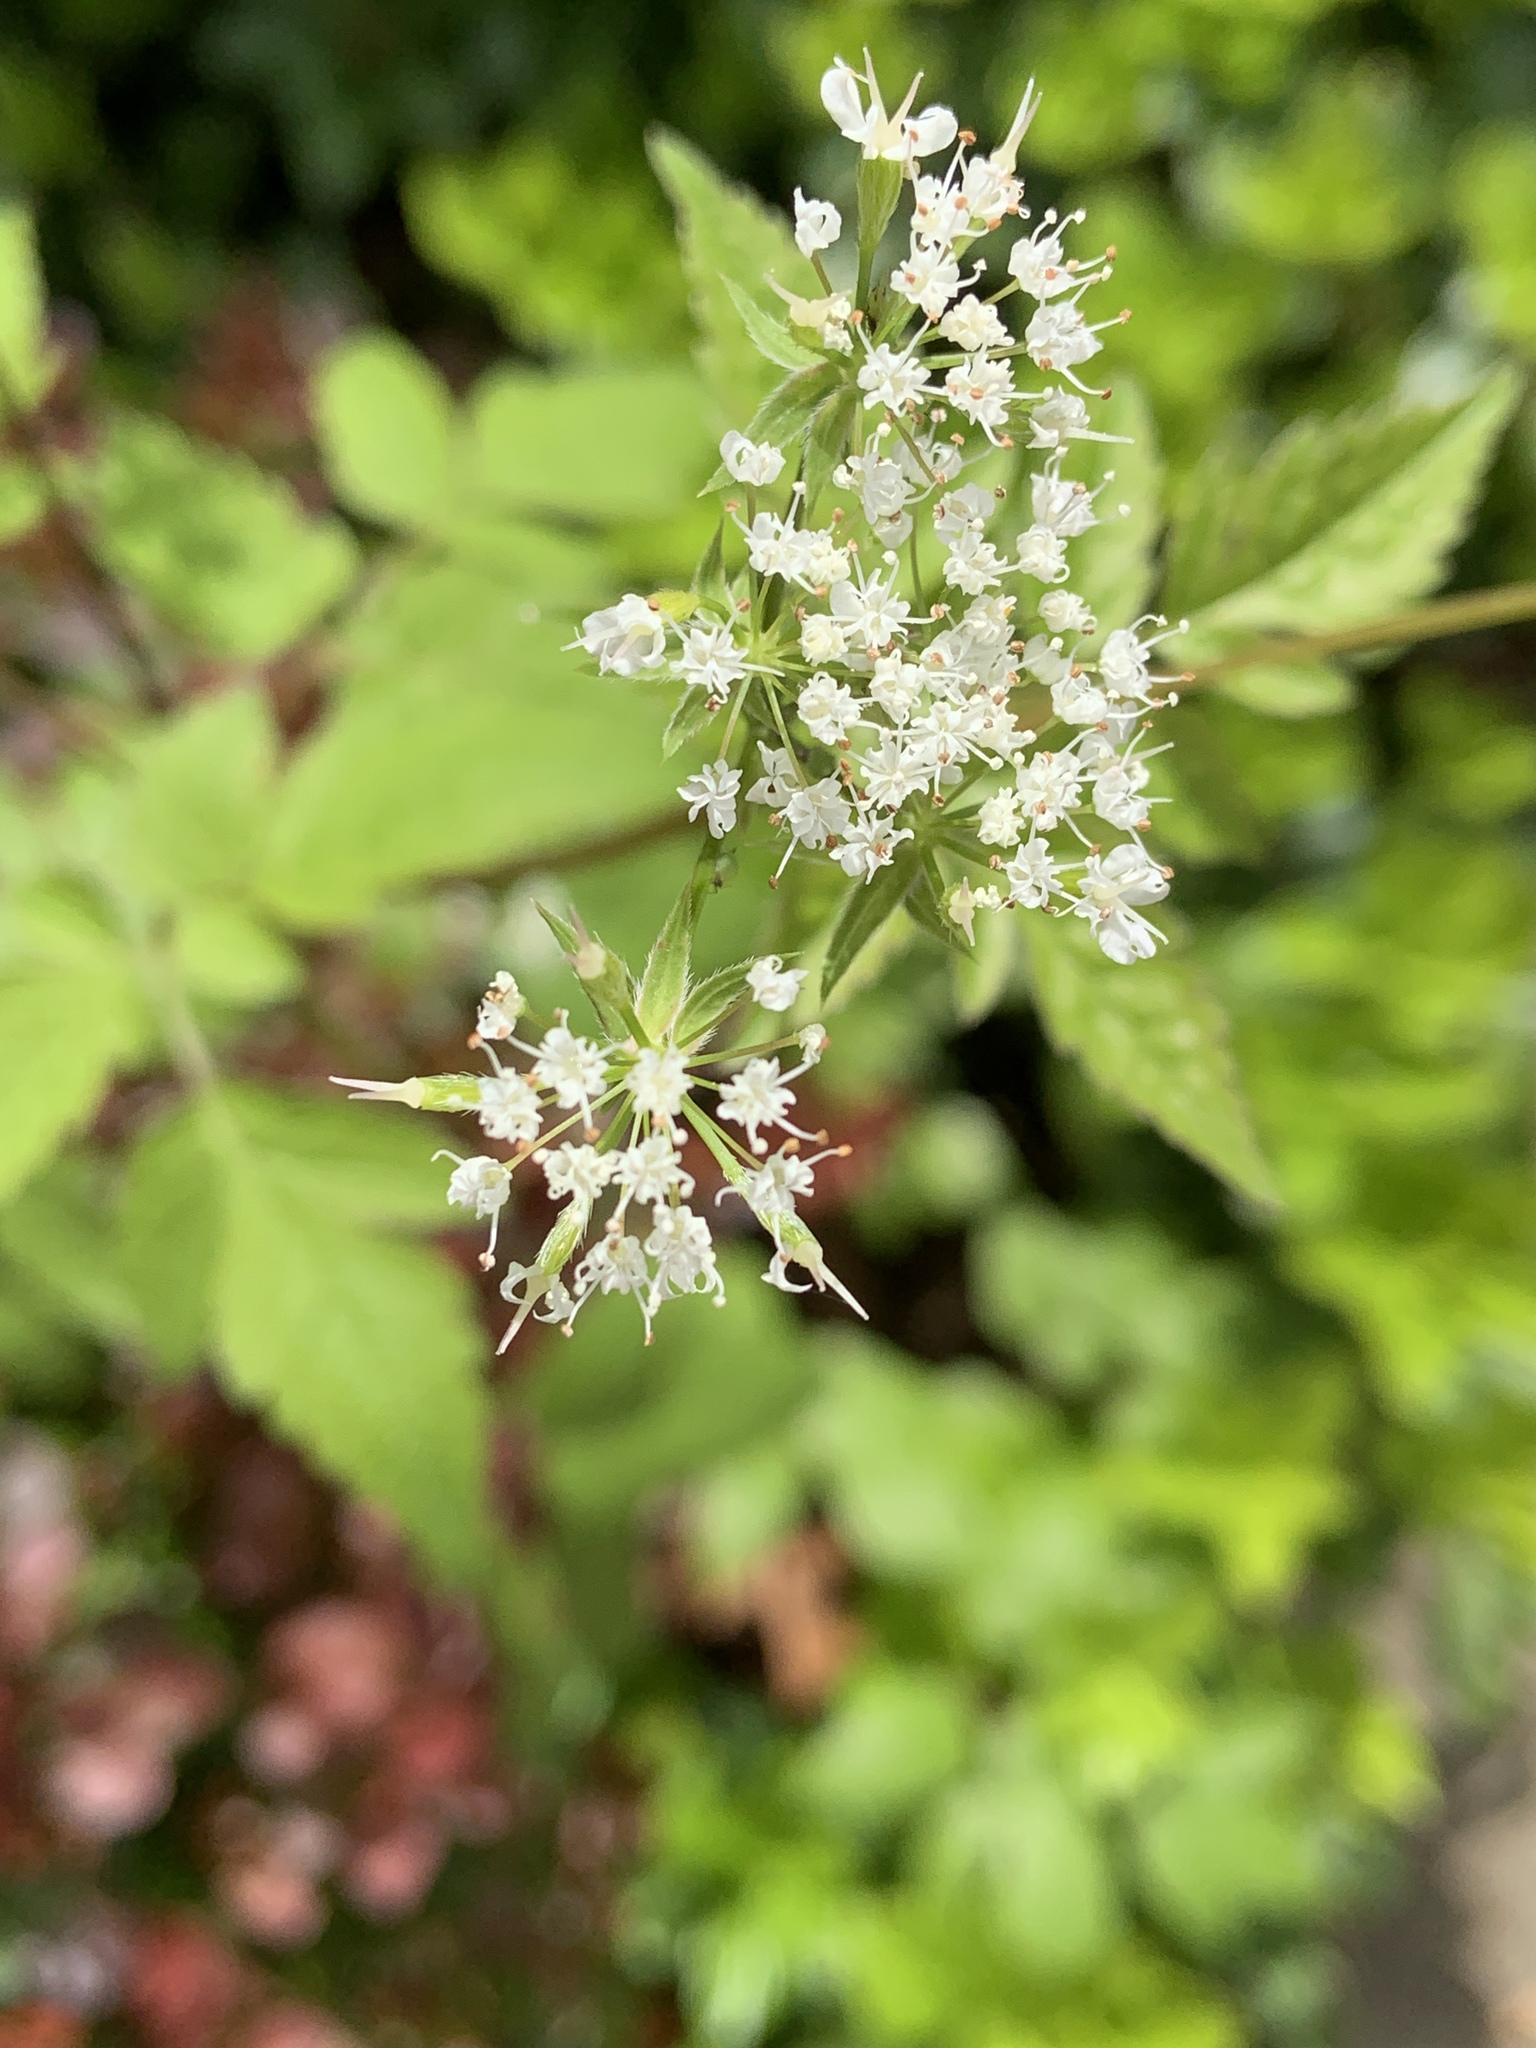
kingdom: Plantae
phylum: Tracheophyta
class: Magnoliopsida
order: Apiales
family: Apiaceae
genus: Osmorhiza
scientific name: Osmorhiza longistylis
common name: Smooth sweet cicely
